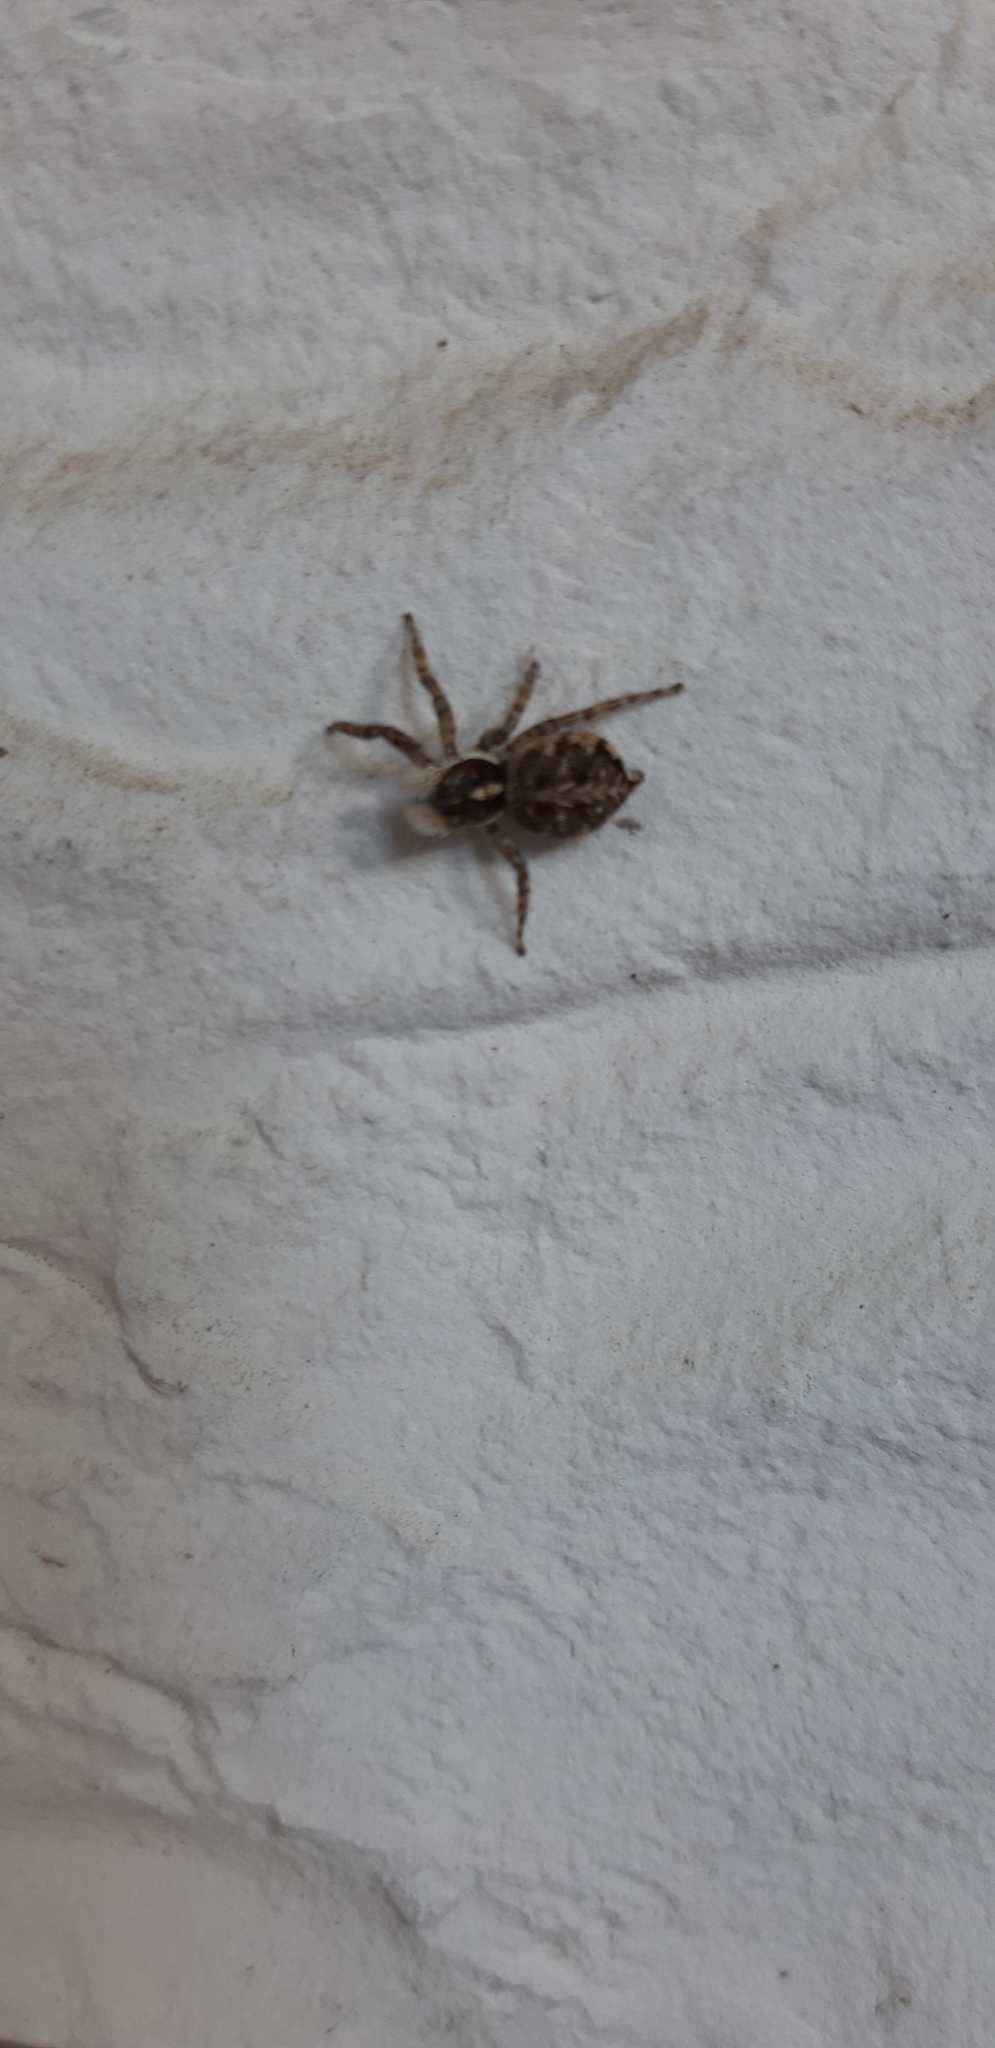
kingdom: Animalia
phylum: Arthropoda
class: Arachnida
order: Araneae
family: Salticidae
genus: Menemerus
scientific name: Menemerus semilimbatus
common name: Jumping spider
